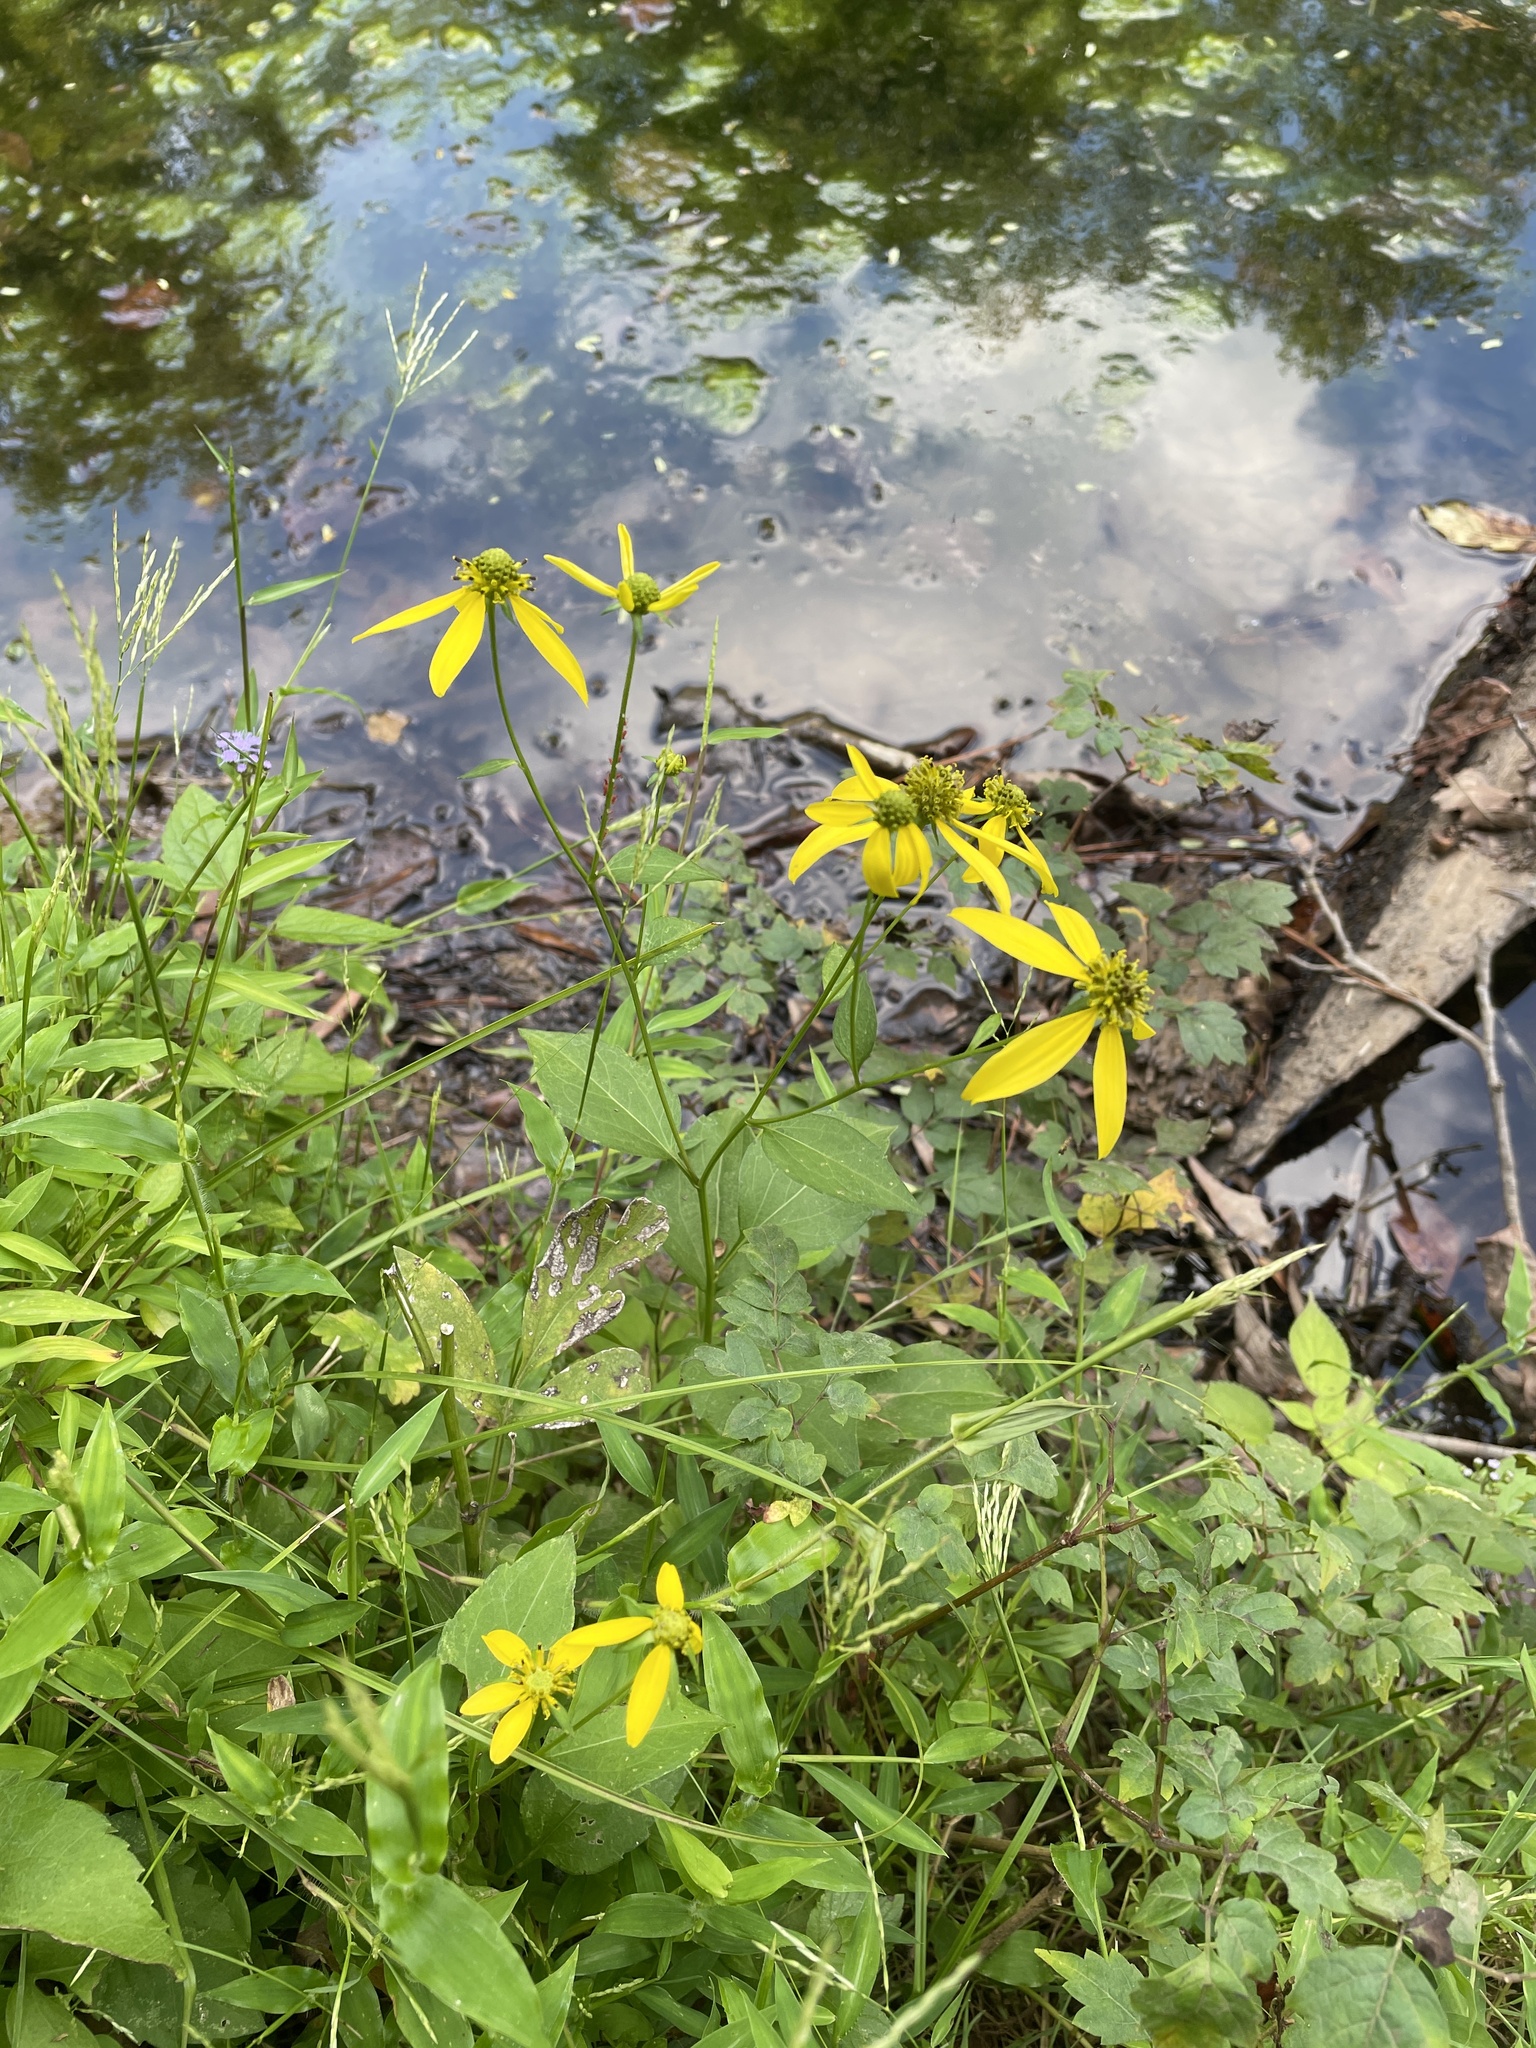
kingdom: Plantae
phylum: Tracheophyta
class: Magnoliopsida
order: Asterales
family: Asteraceae
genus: Rudbeckia
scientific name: Rudbeckia laciniata
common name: Coneflower
